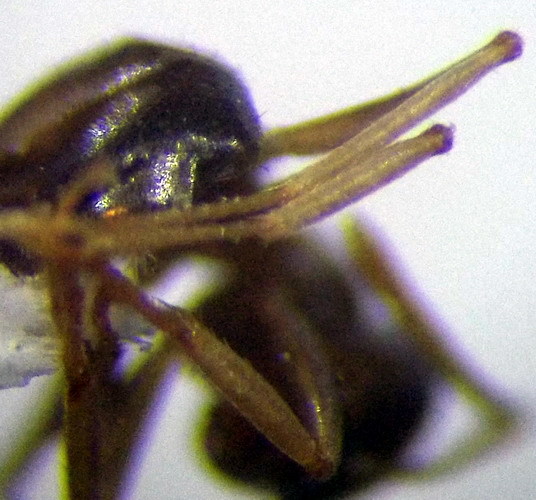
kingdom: Animalia
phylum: Arthropoda
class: Insecta
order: Hymenoptera
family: Formicidae
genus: Lasius
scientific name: Lasius alienus
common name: Alien field ant
